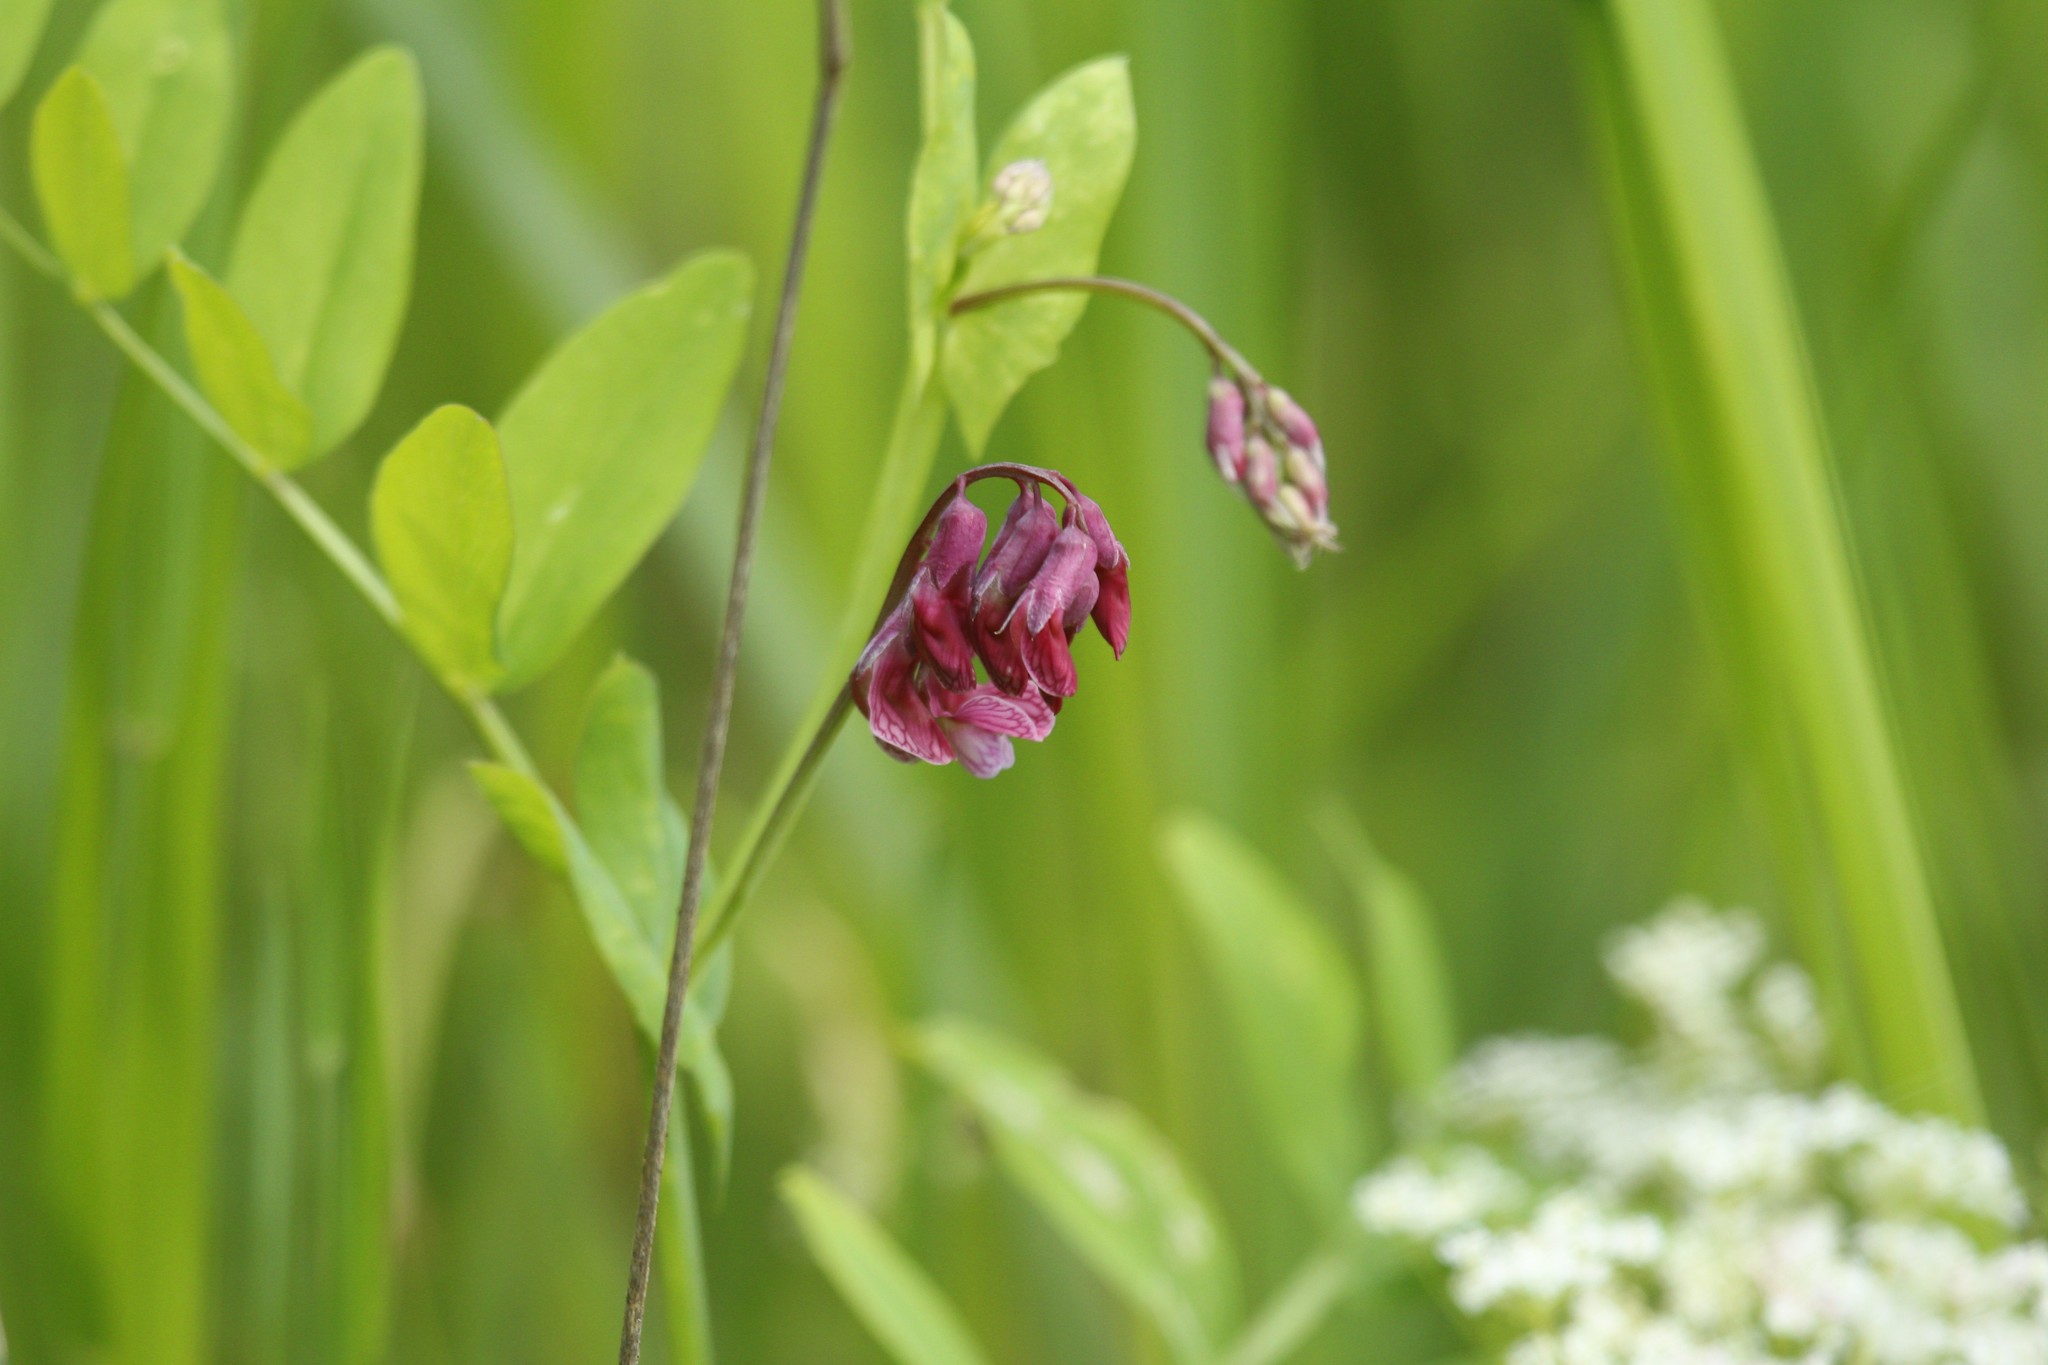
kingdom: Plantae
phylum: Tracheophyta
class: Magnoliopsida
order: Fabales
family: Fabaceae
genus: Lathyrus
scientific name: Lathyrus pisiformis
